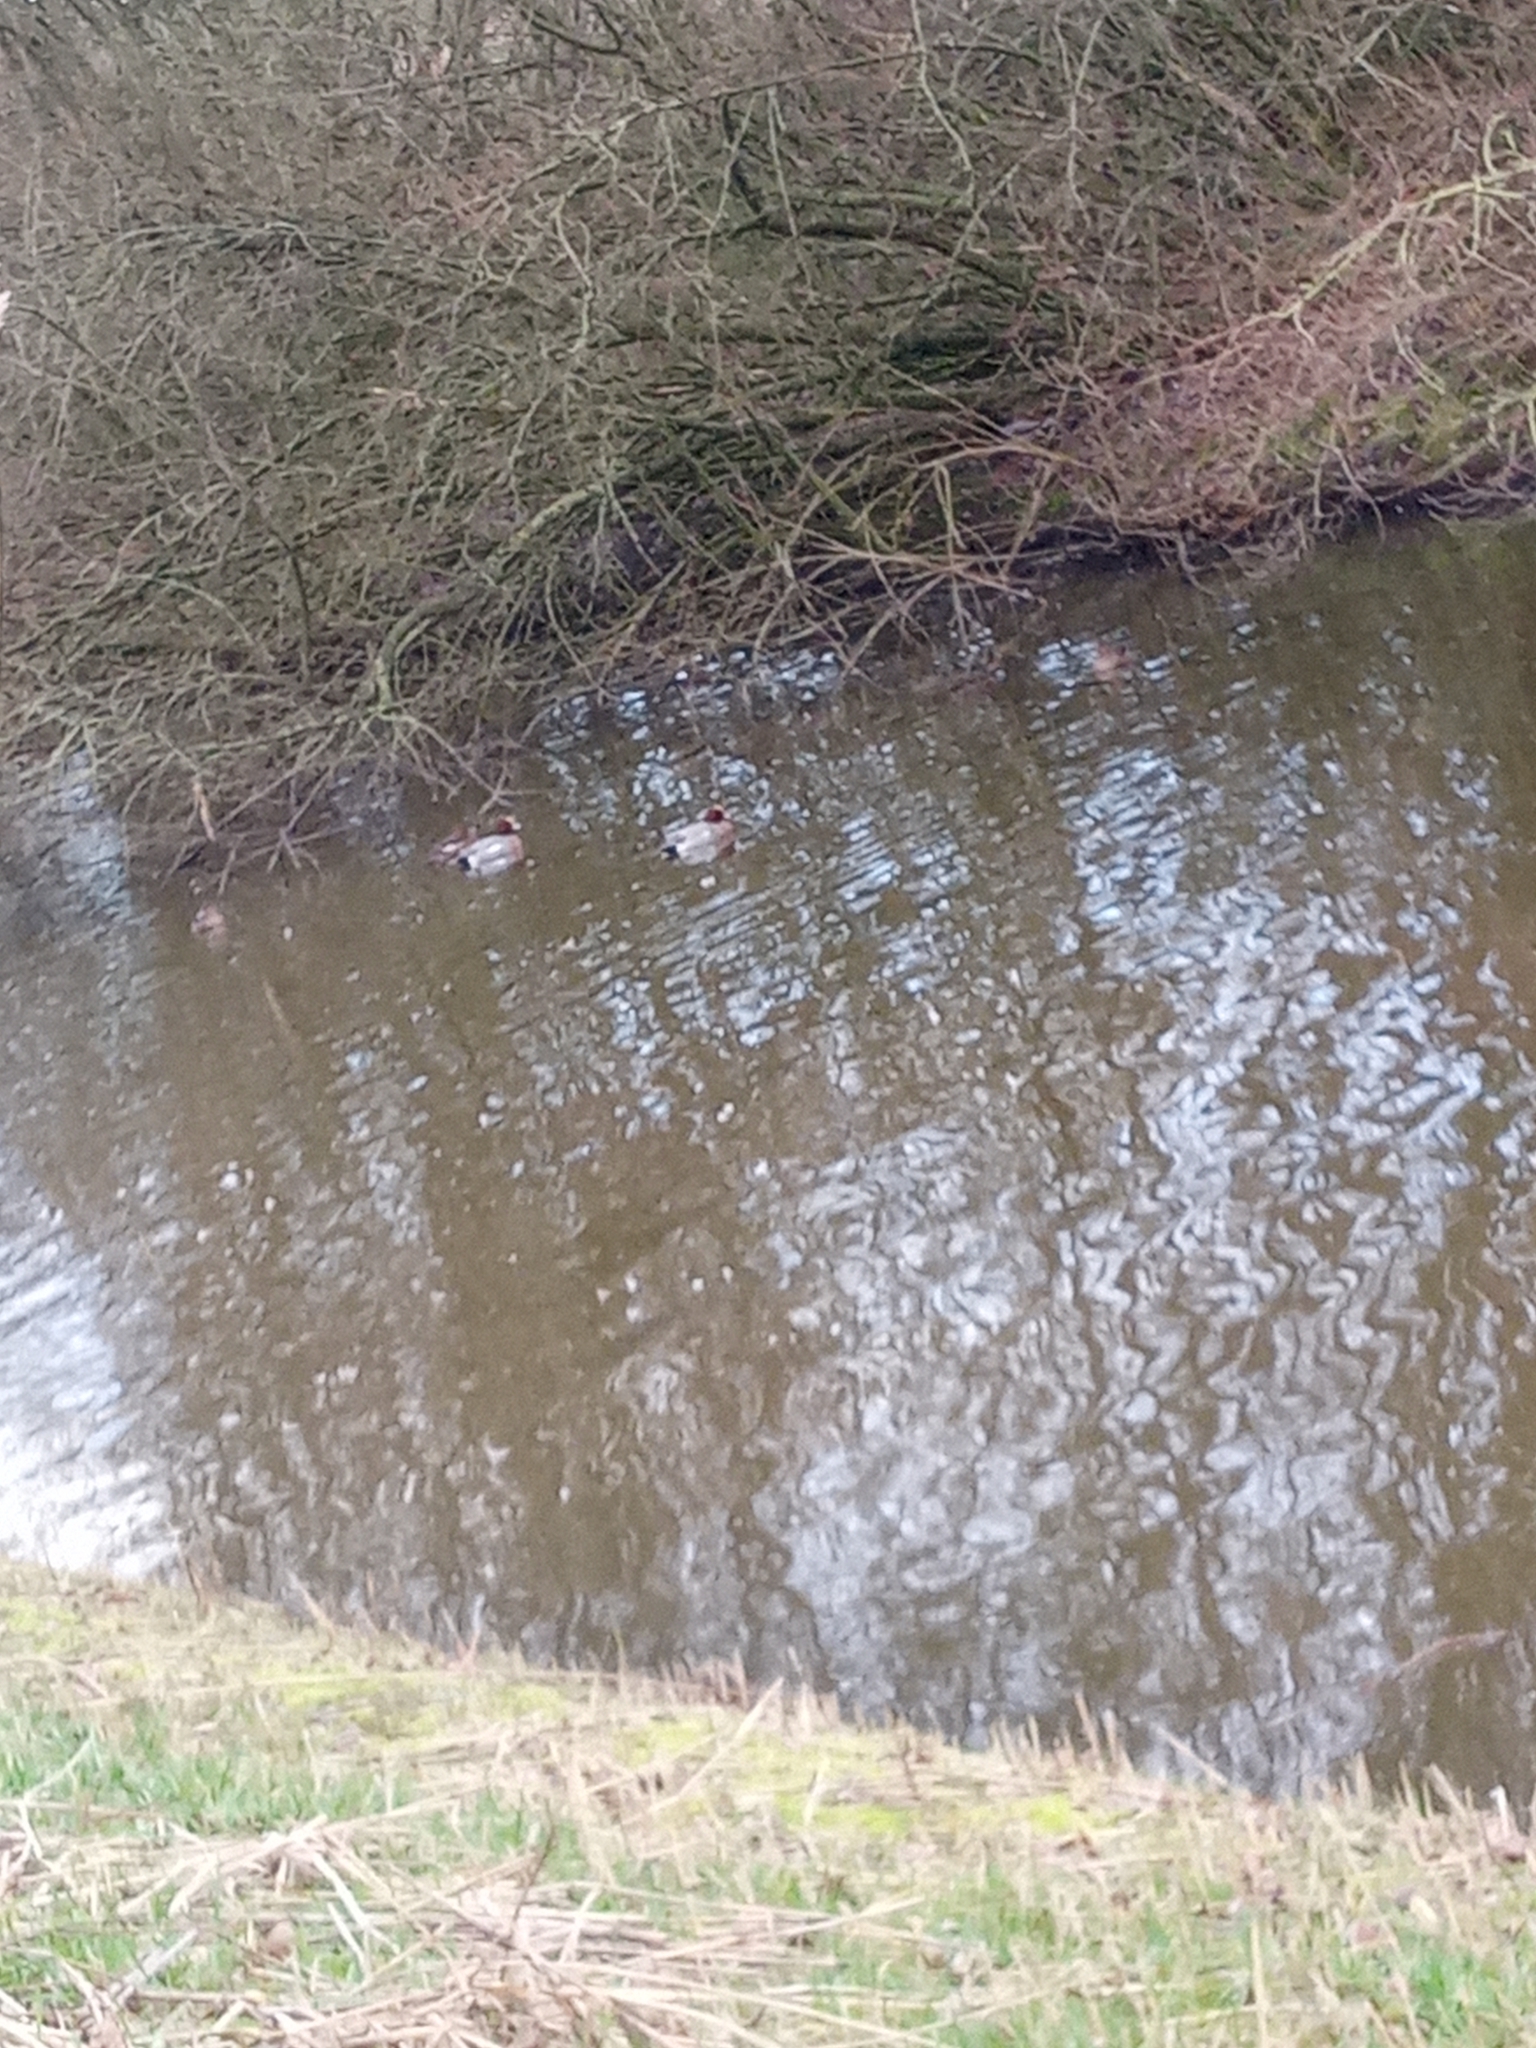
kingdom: Animalia
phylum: Chordata
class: Aves
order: Anseriformes
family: Anatidae
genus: Mareca
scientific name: Mareca penelope
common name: Eurasian wigeon
